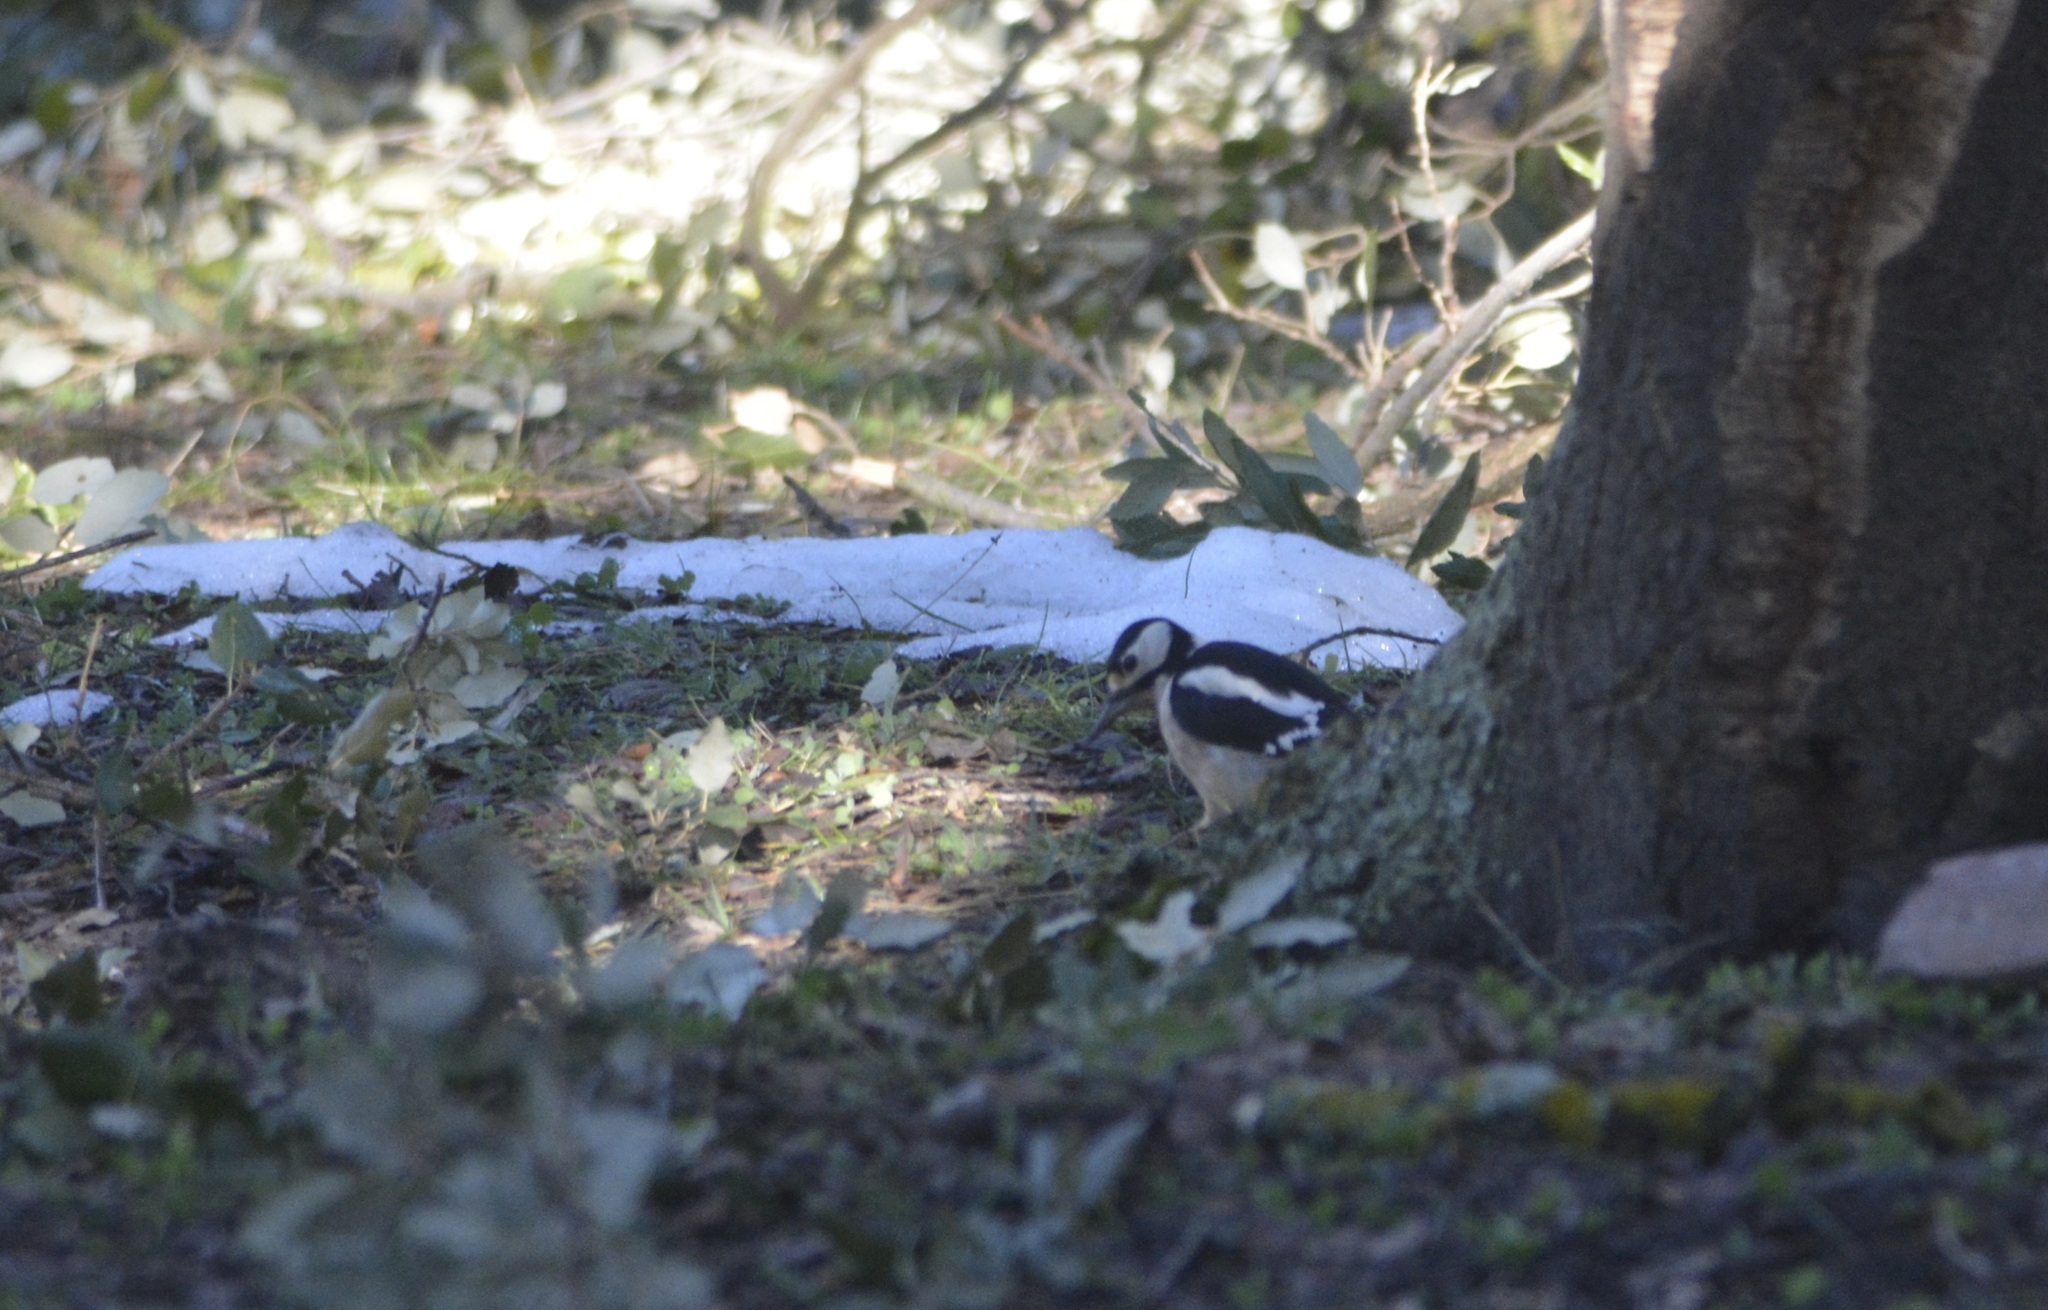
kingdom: Animalia
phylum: Chordata
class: Aves
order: Piciformes
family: Picidae
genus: Dendrocopos
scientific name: Dendrocopos major
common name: Great spotted woodpecker
